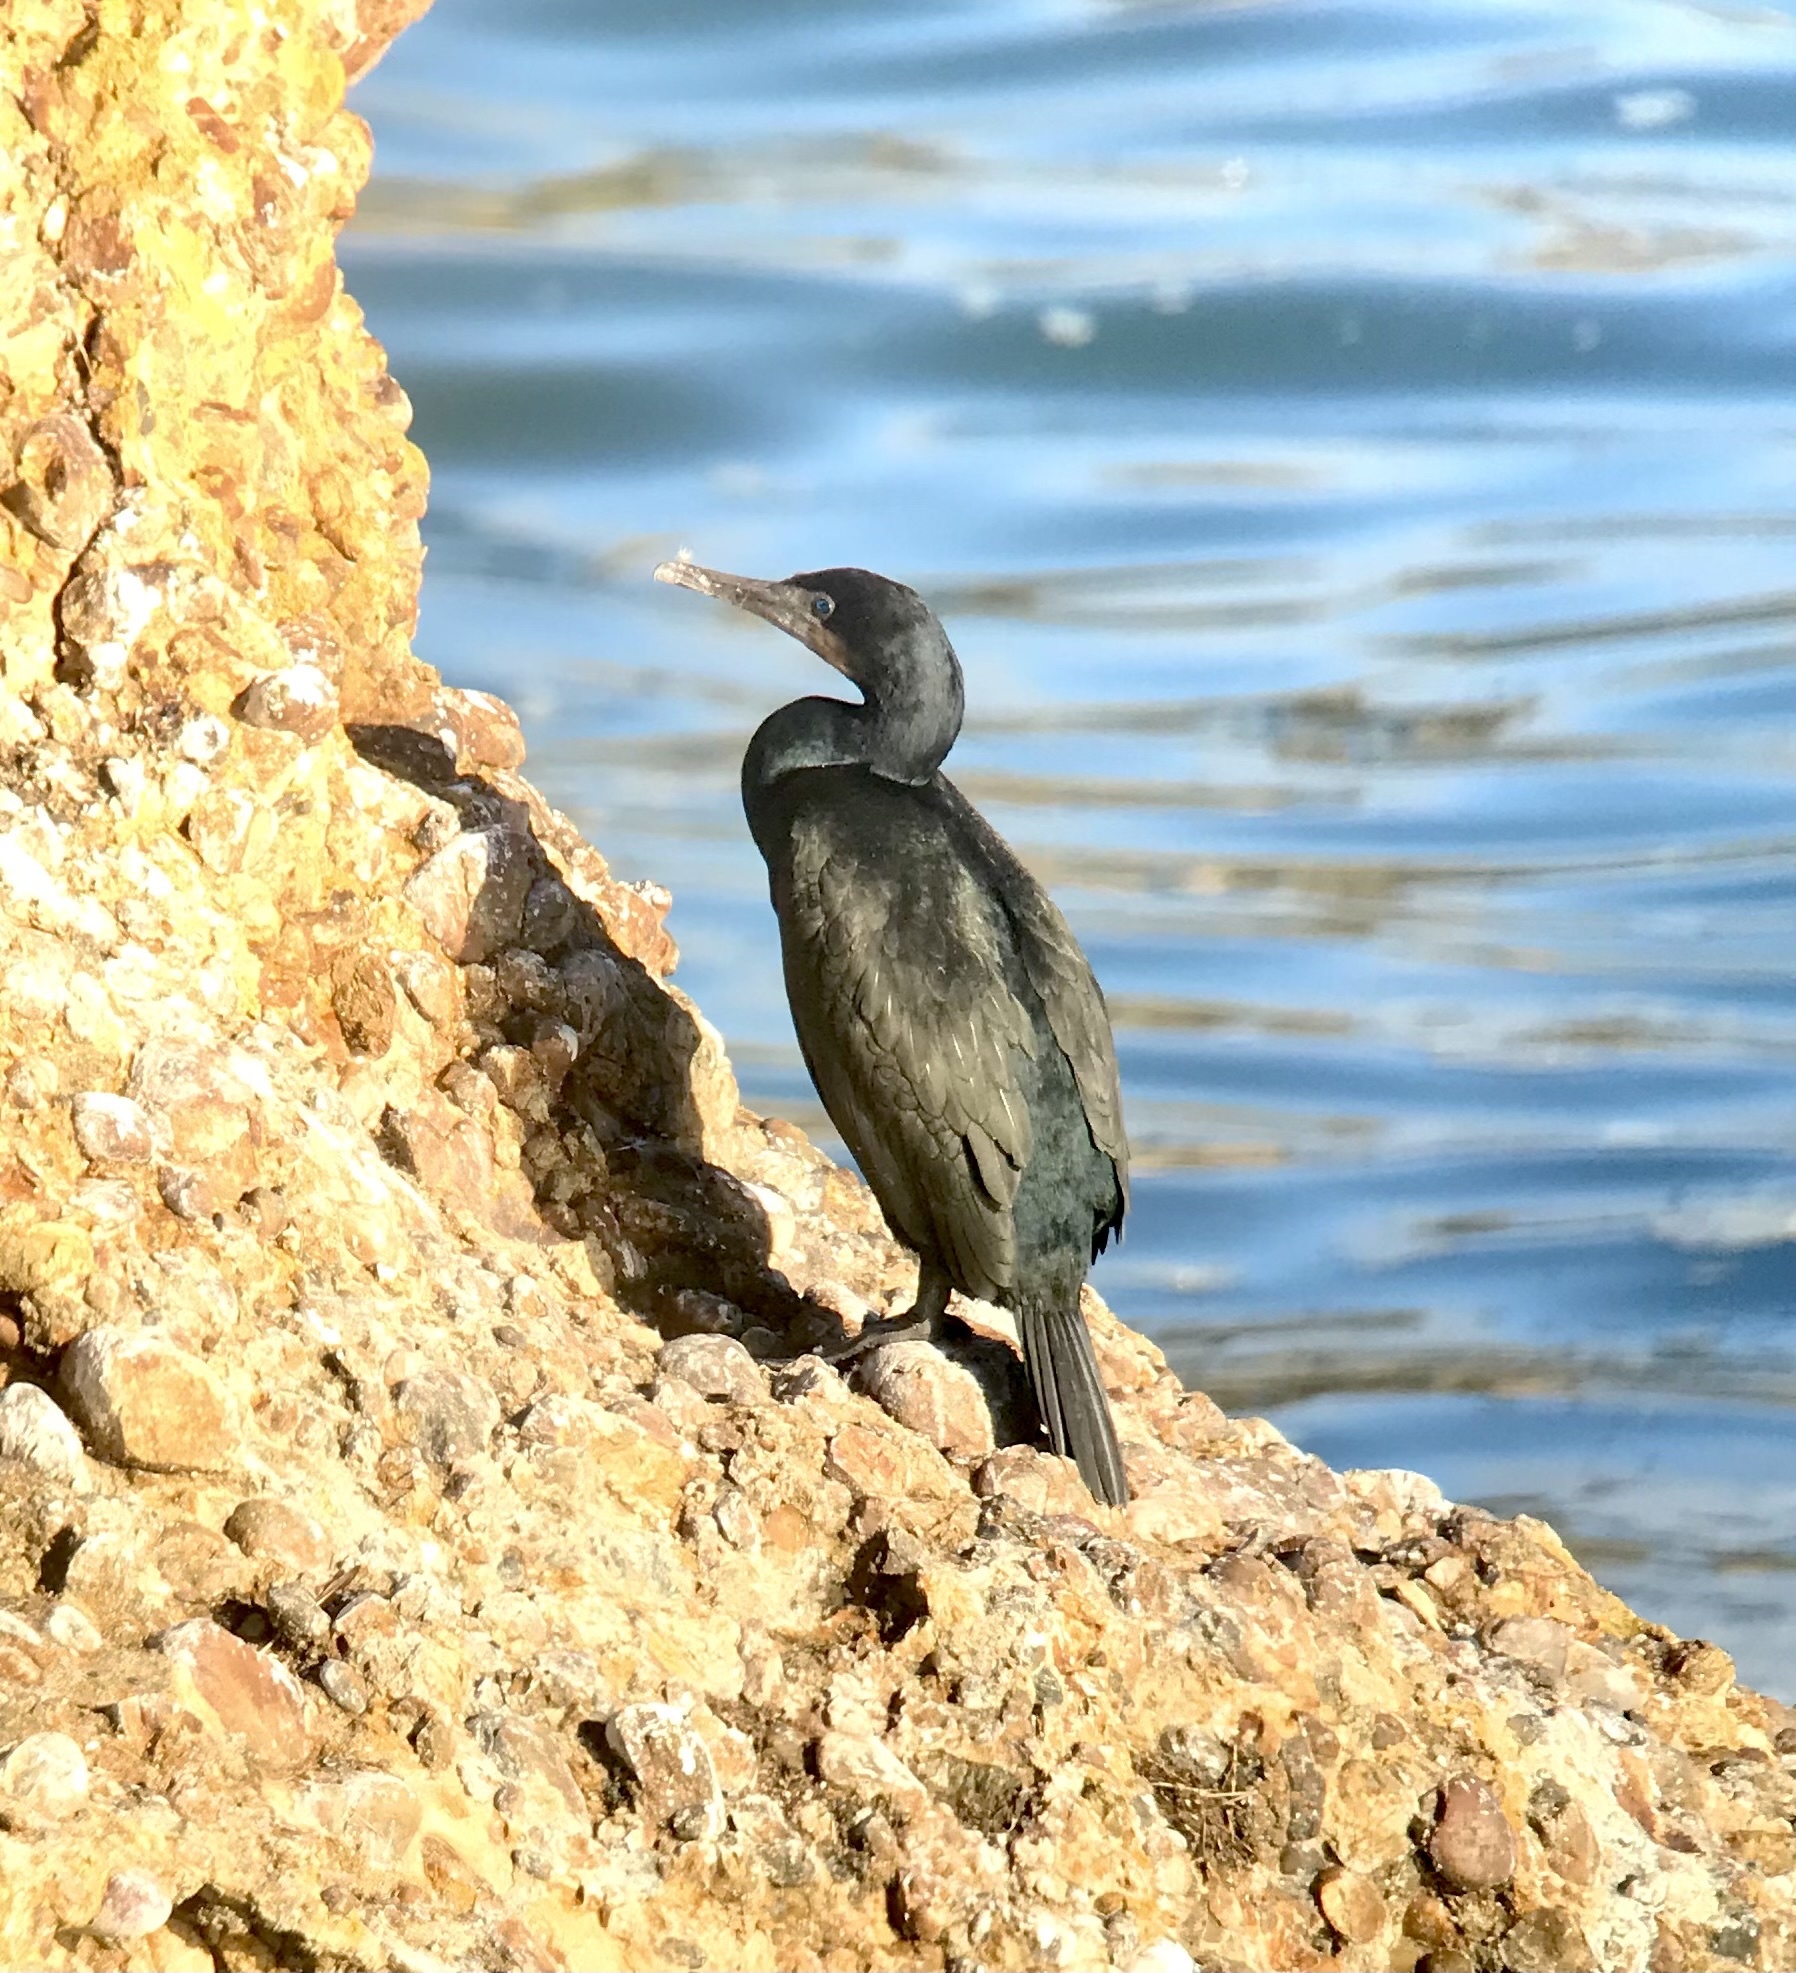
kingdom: Animalia
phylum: Chordata
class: Aves
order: Suliformes
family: Phalacrocoracidae
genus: Urile
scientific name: Urile penicillatus
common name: Brandt's cormorant
